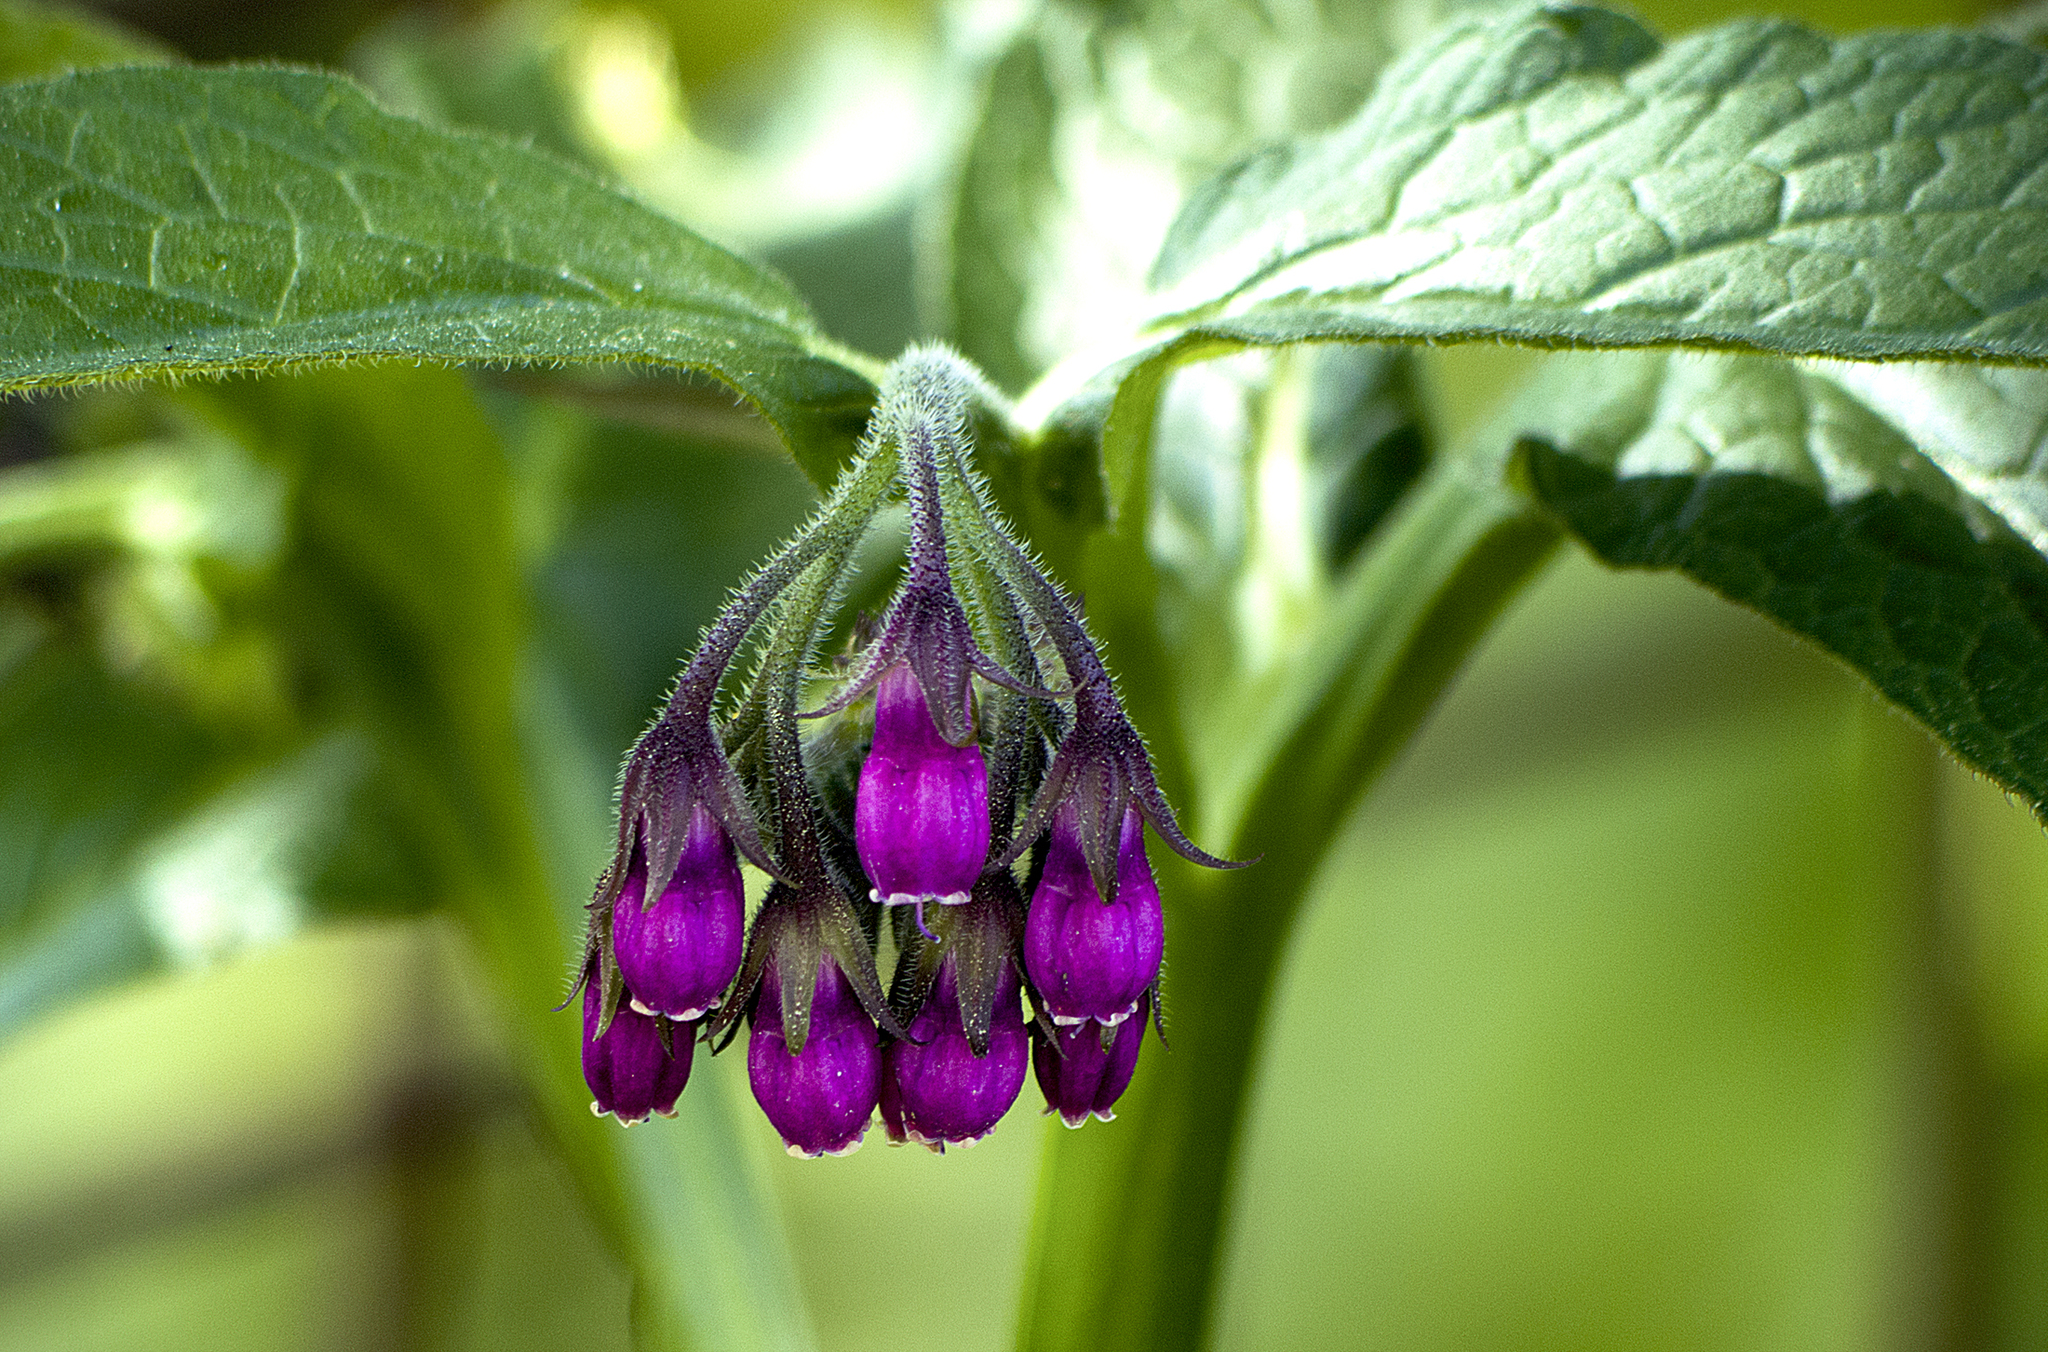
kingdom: Plantae
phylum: Tracheophyta
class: Magnoliopsida
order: Boraginales
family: Boraginaceae
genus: Symphytum
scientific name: Symphytum officinale
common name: Common comfrey
